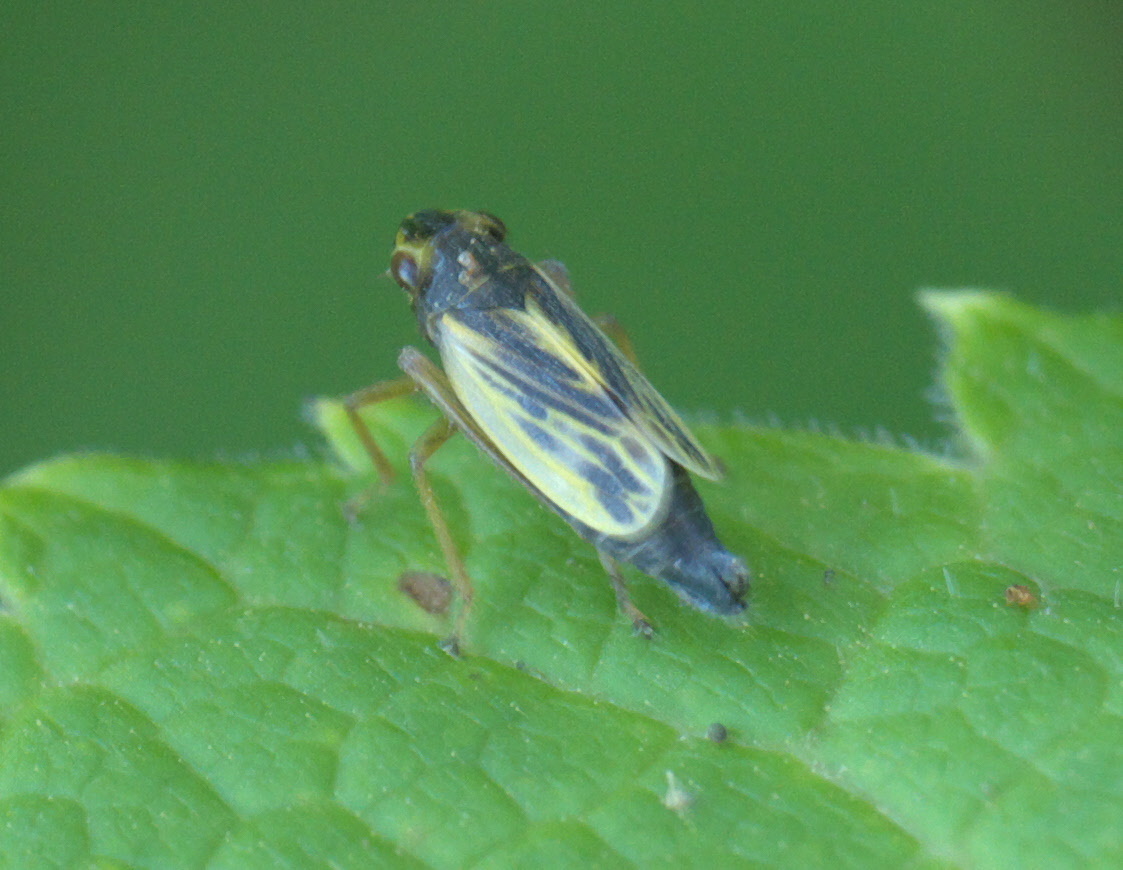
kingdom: Animalia
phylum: Arthropoda
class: Insecta
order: Hemiptera
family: Cicadellidae
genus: Evacanthus
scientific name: Evacanthus emilus
